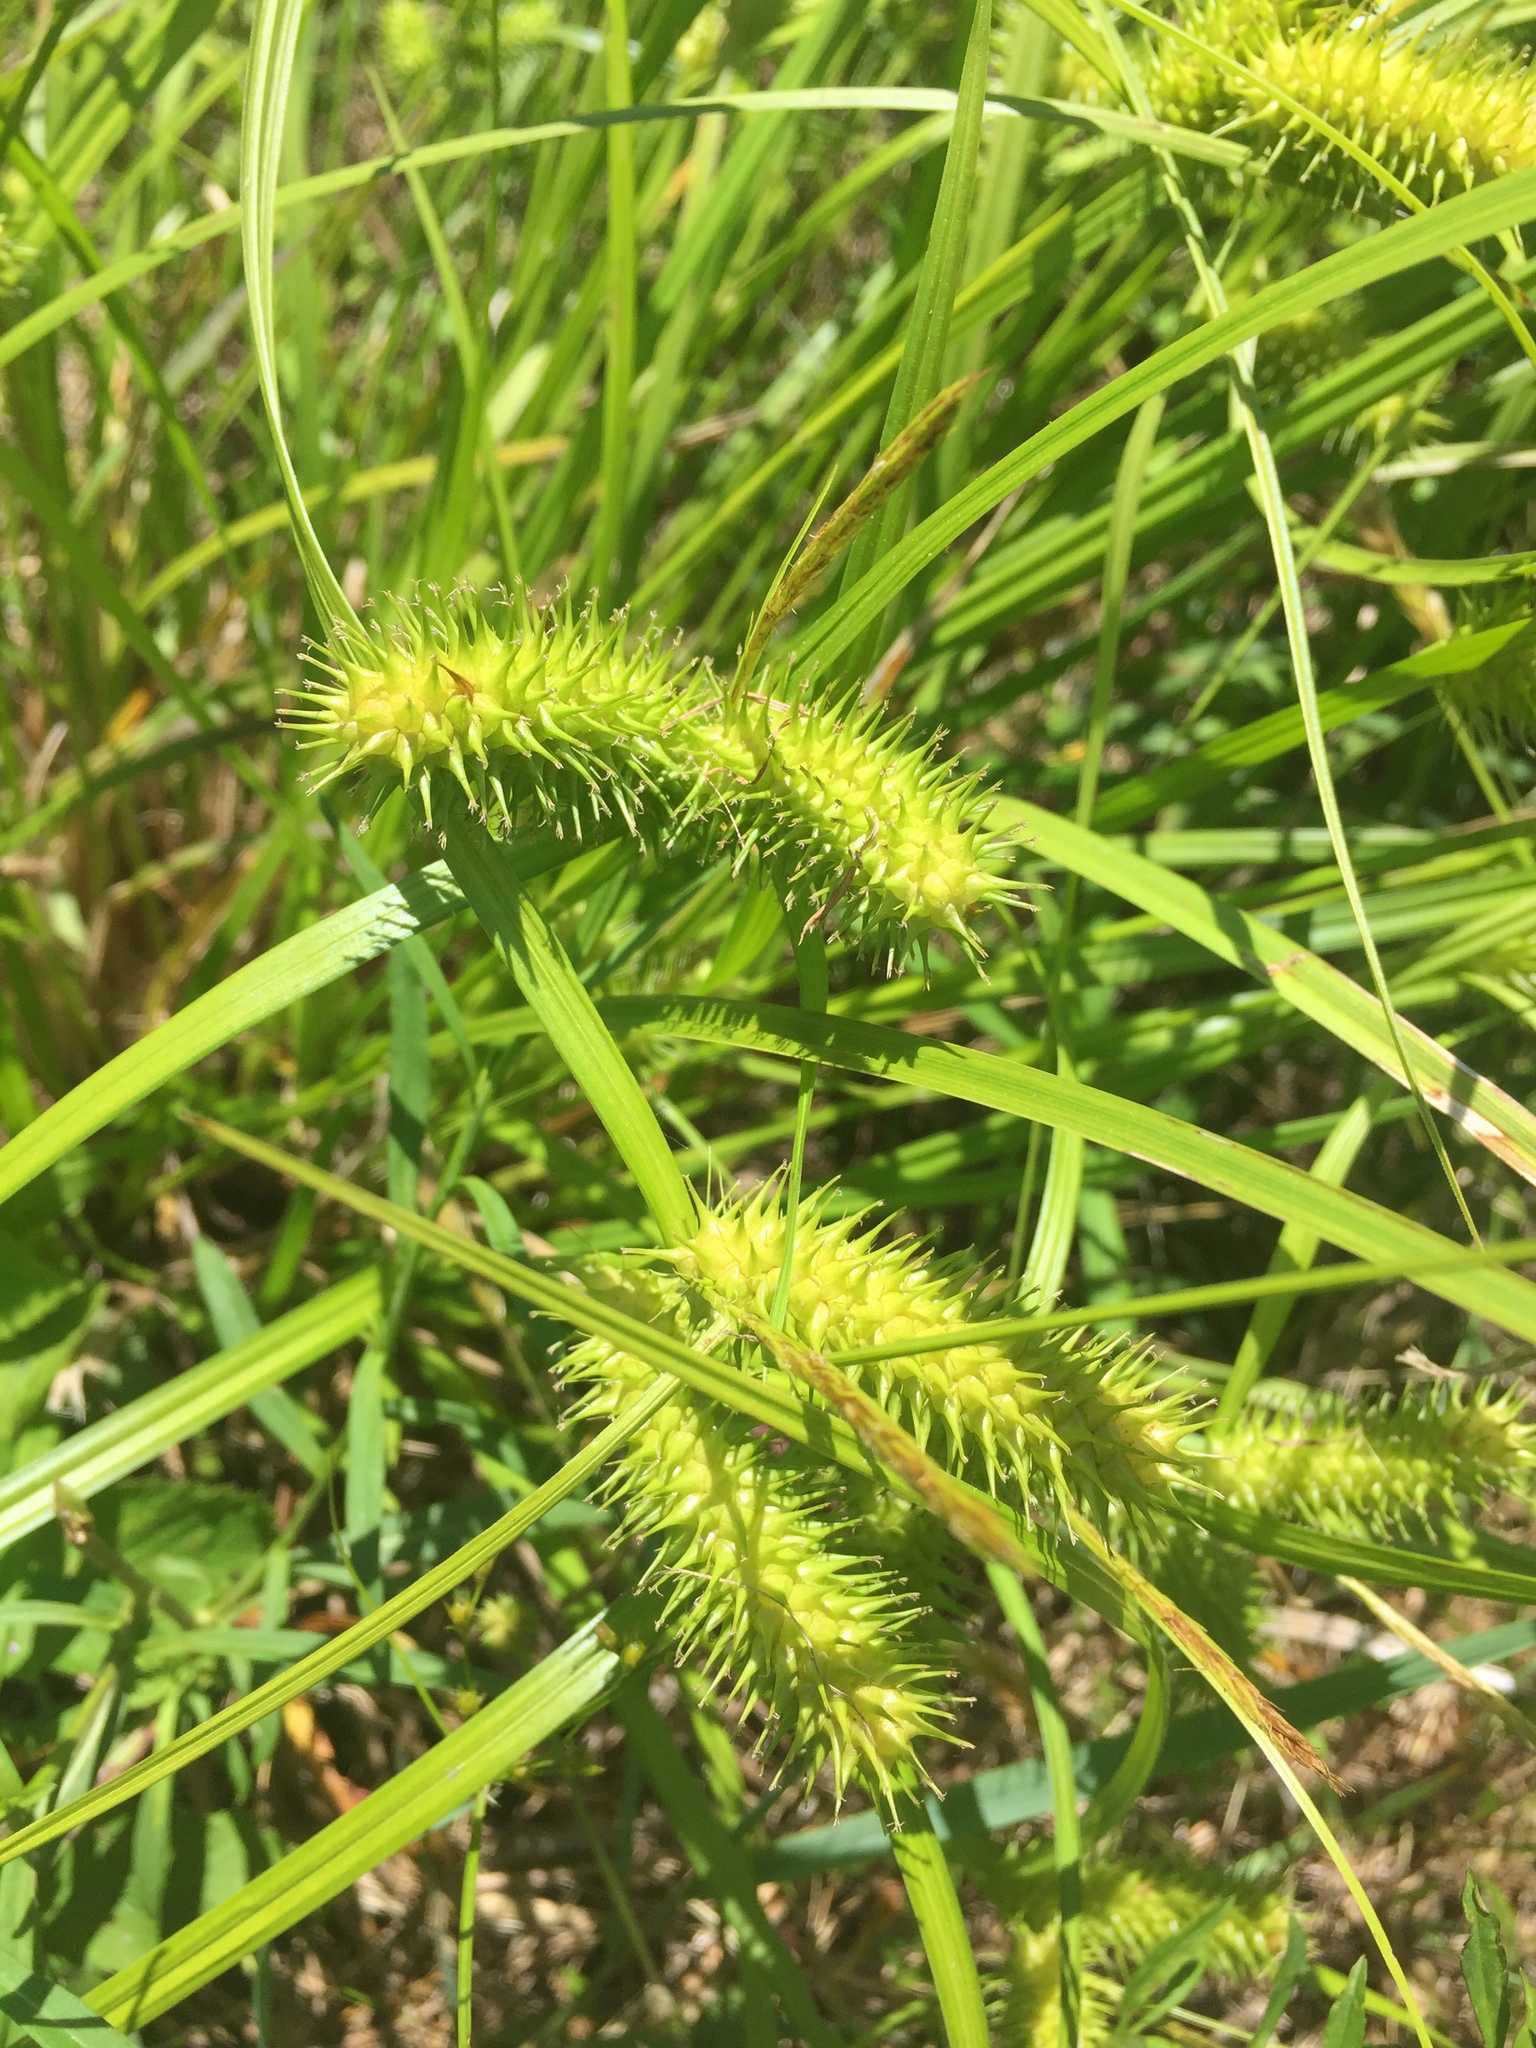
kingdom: Plantae
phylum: Tracheophyta
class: Liliopsida
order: Poales
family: Cyperaceae
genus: Carex
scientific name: Carex lurida
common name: Sallow sedge
